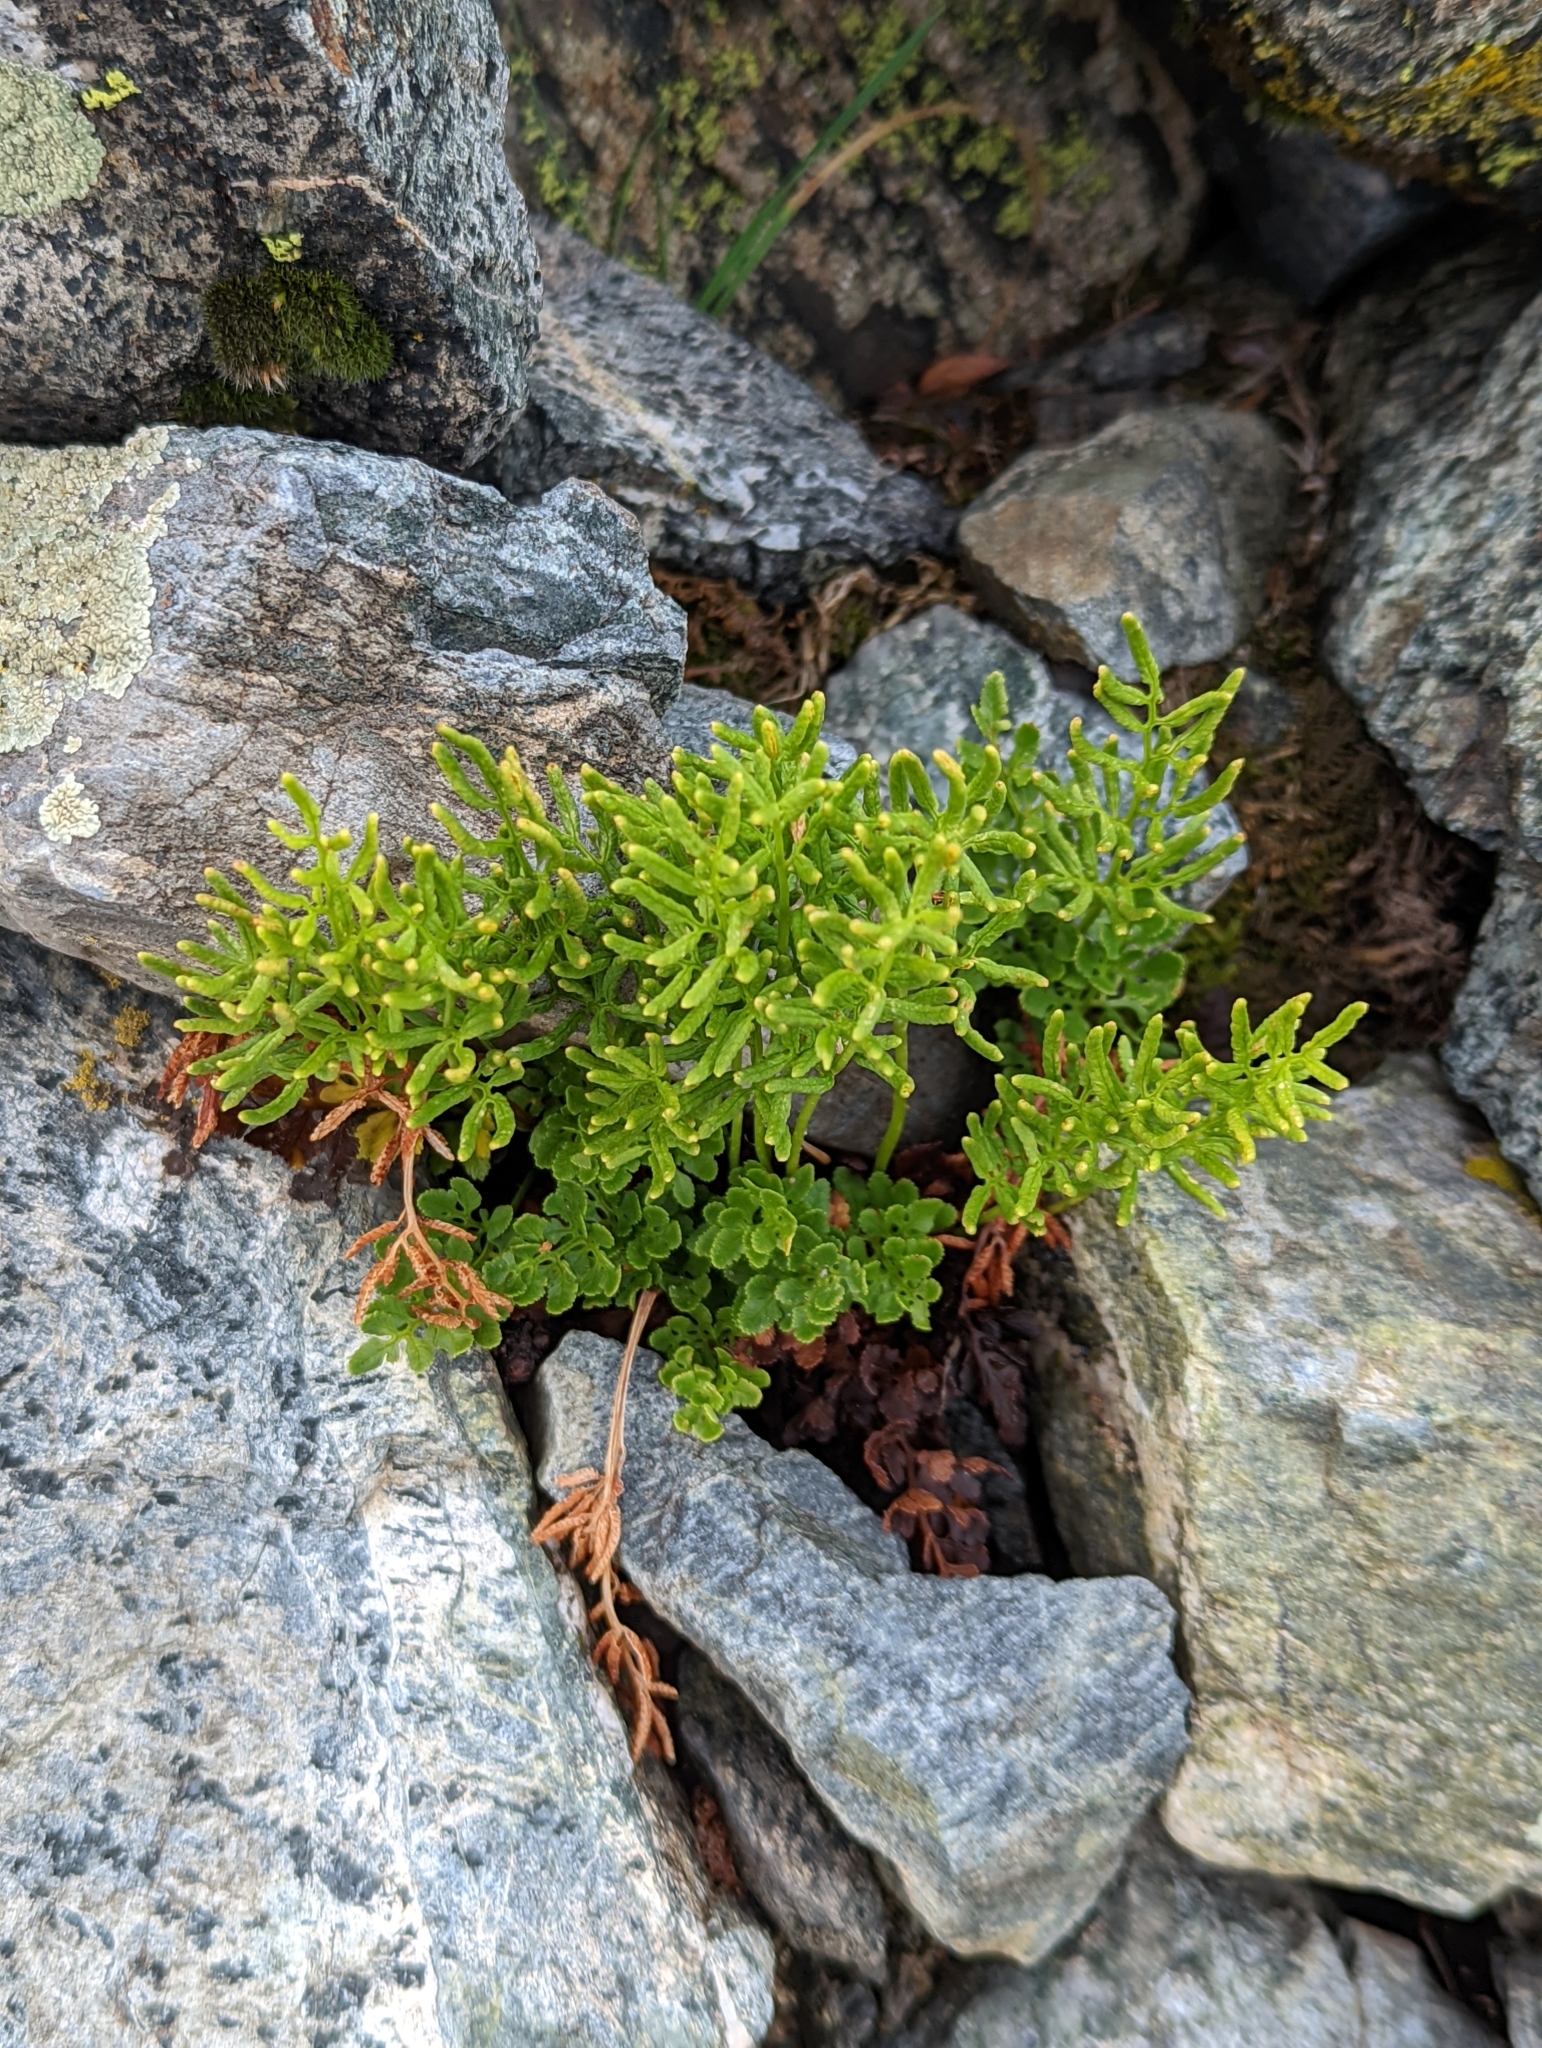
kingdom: Plantae
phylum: Tracheophyta
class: Polypodiopsida
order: Polypodiales
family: Pteridaceae
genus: Cryptogramma
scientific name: Cryptogramma acrostichoides
